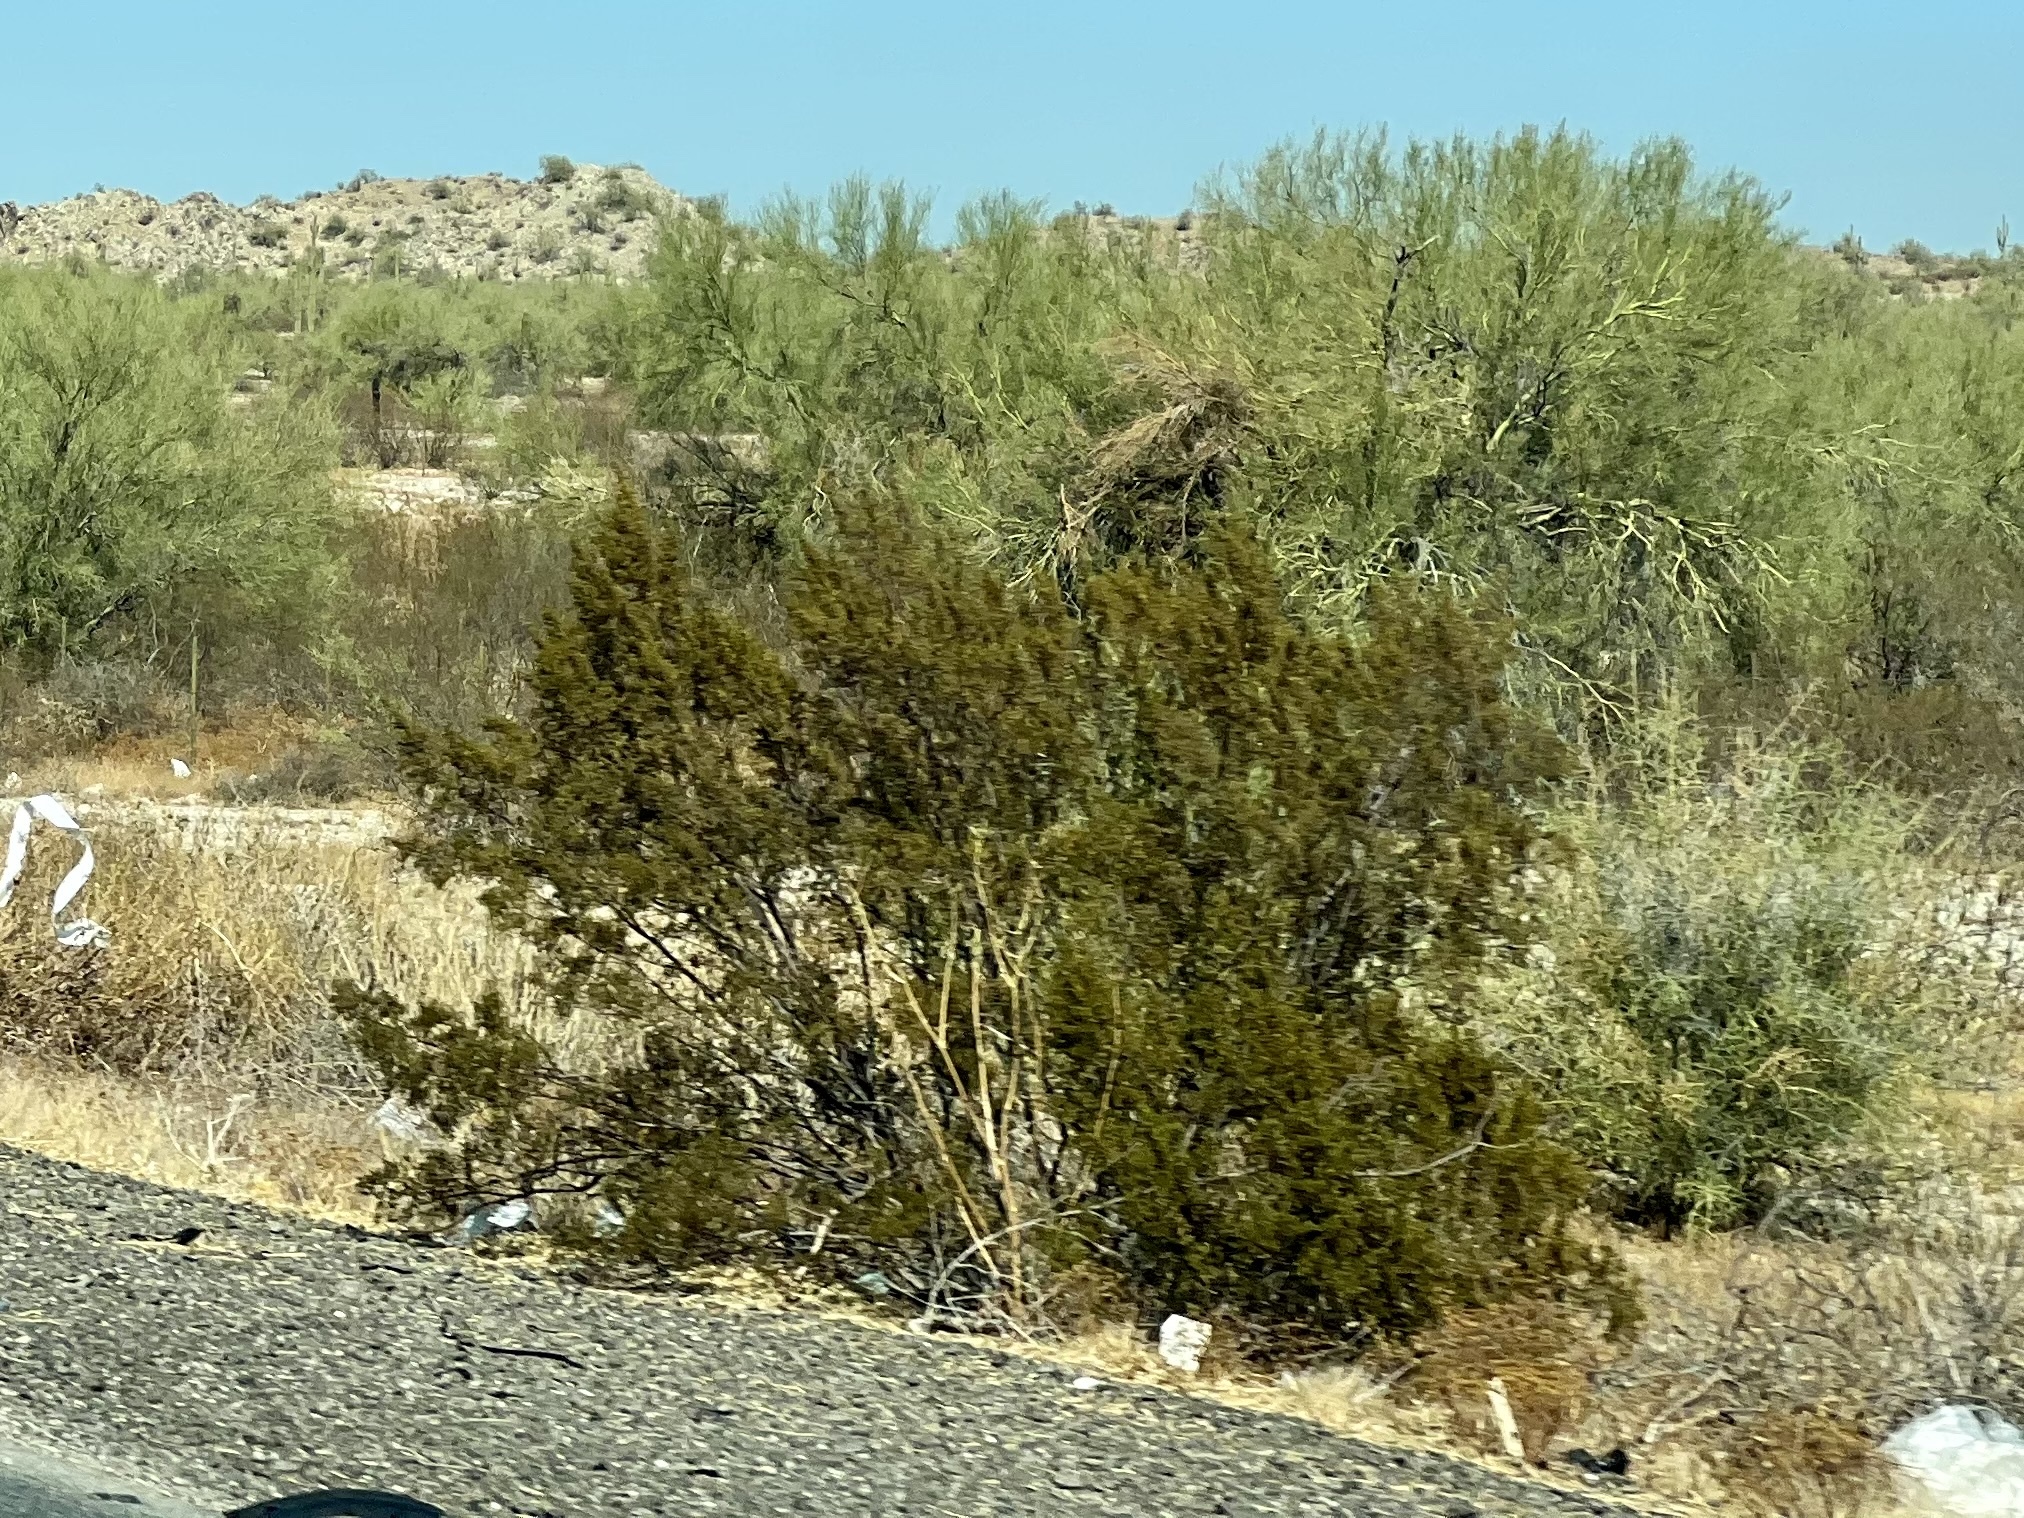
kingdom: Plantae
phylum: Tracheophyta
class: Magnoliopsida
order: Zygophyllales
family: Zygophyllaceae
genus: Larrea
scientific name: Larrea tridentata
